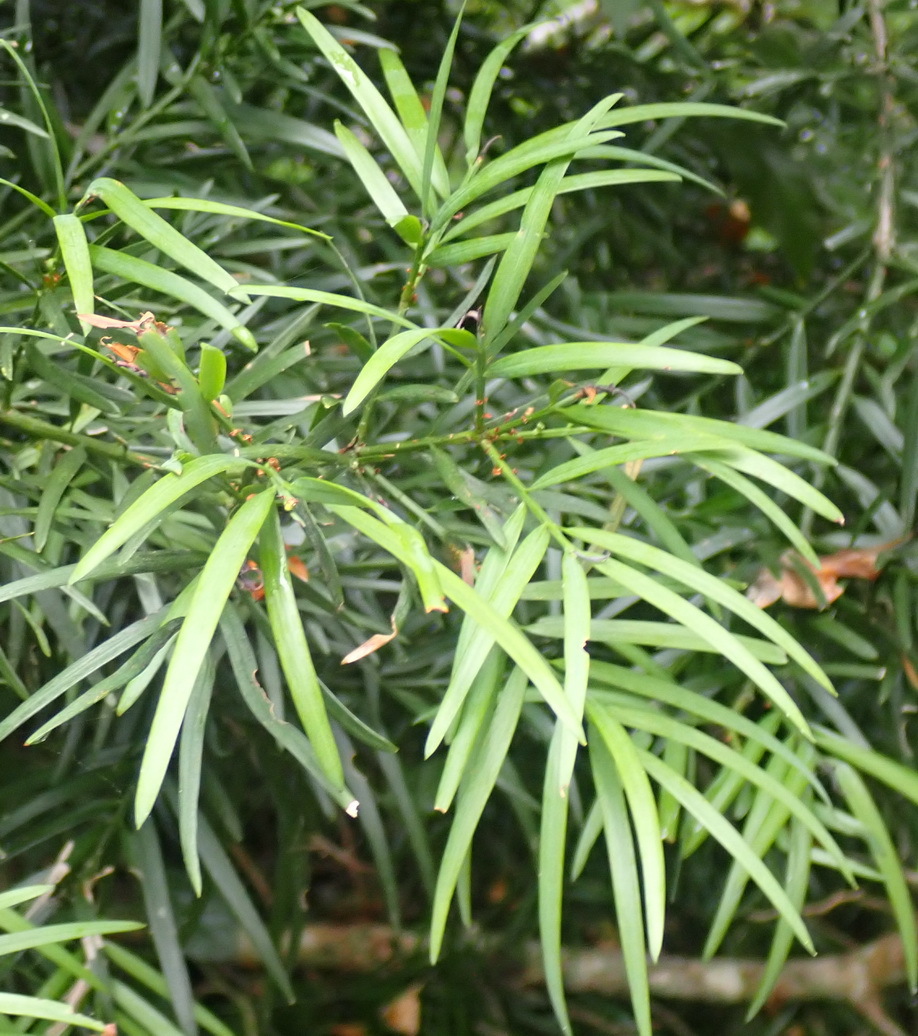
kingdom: Plantae
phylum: Tracheophyta
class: Pinopsida
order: Pinales
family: Podocarpaceae
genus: Afrocarpus
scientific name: Afrocarpus falcatus
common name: Bastard yellowwood
